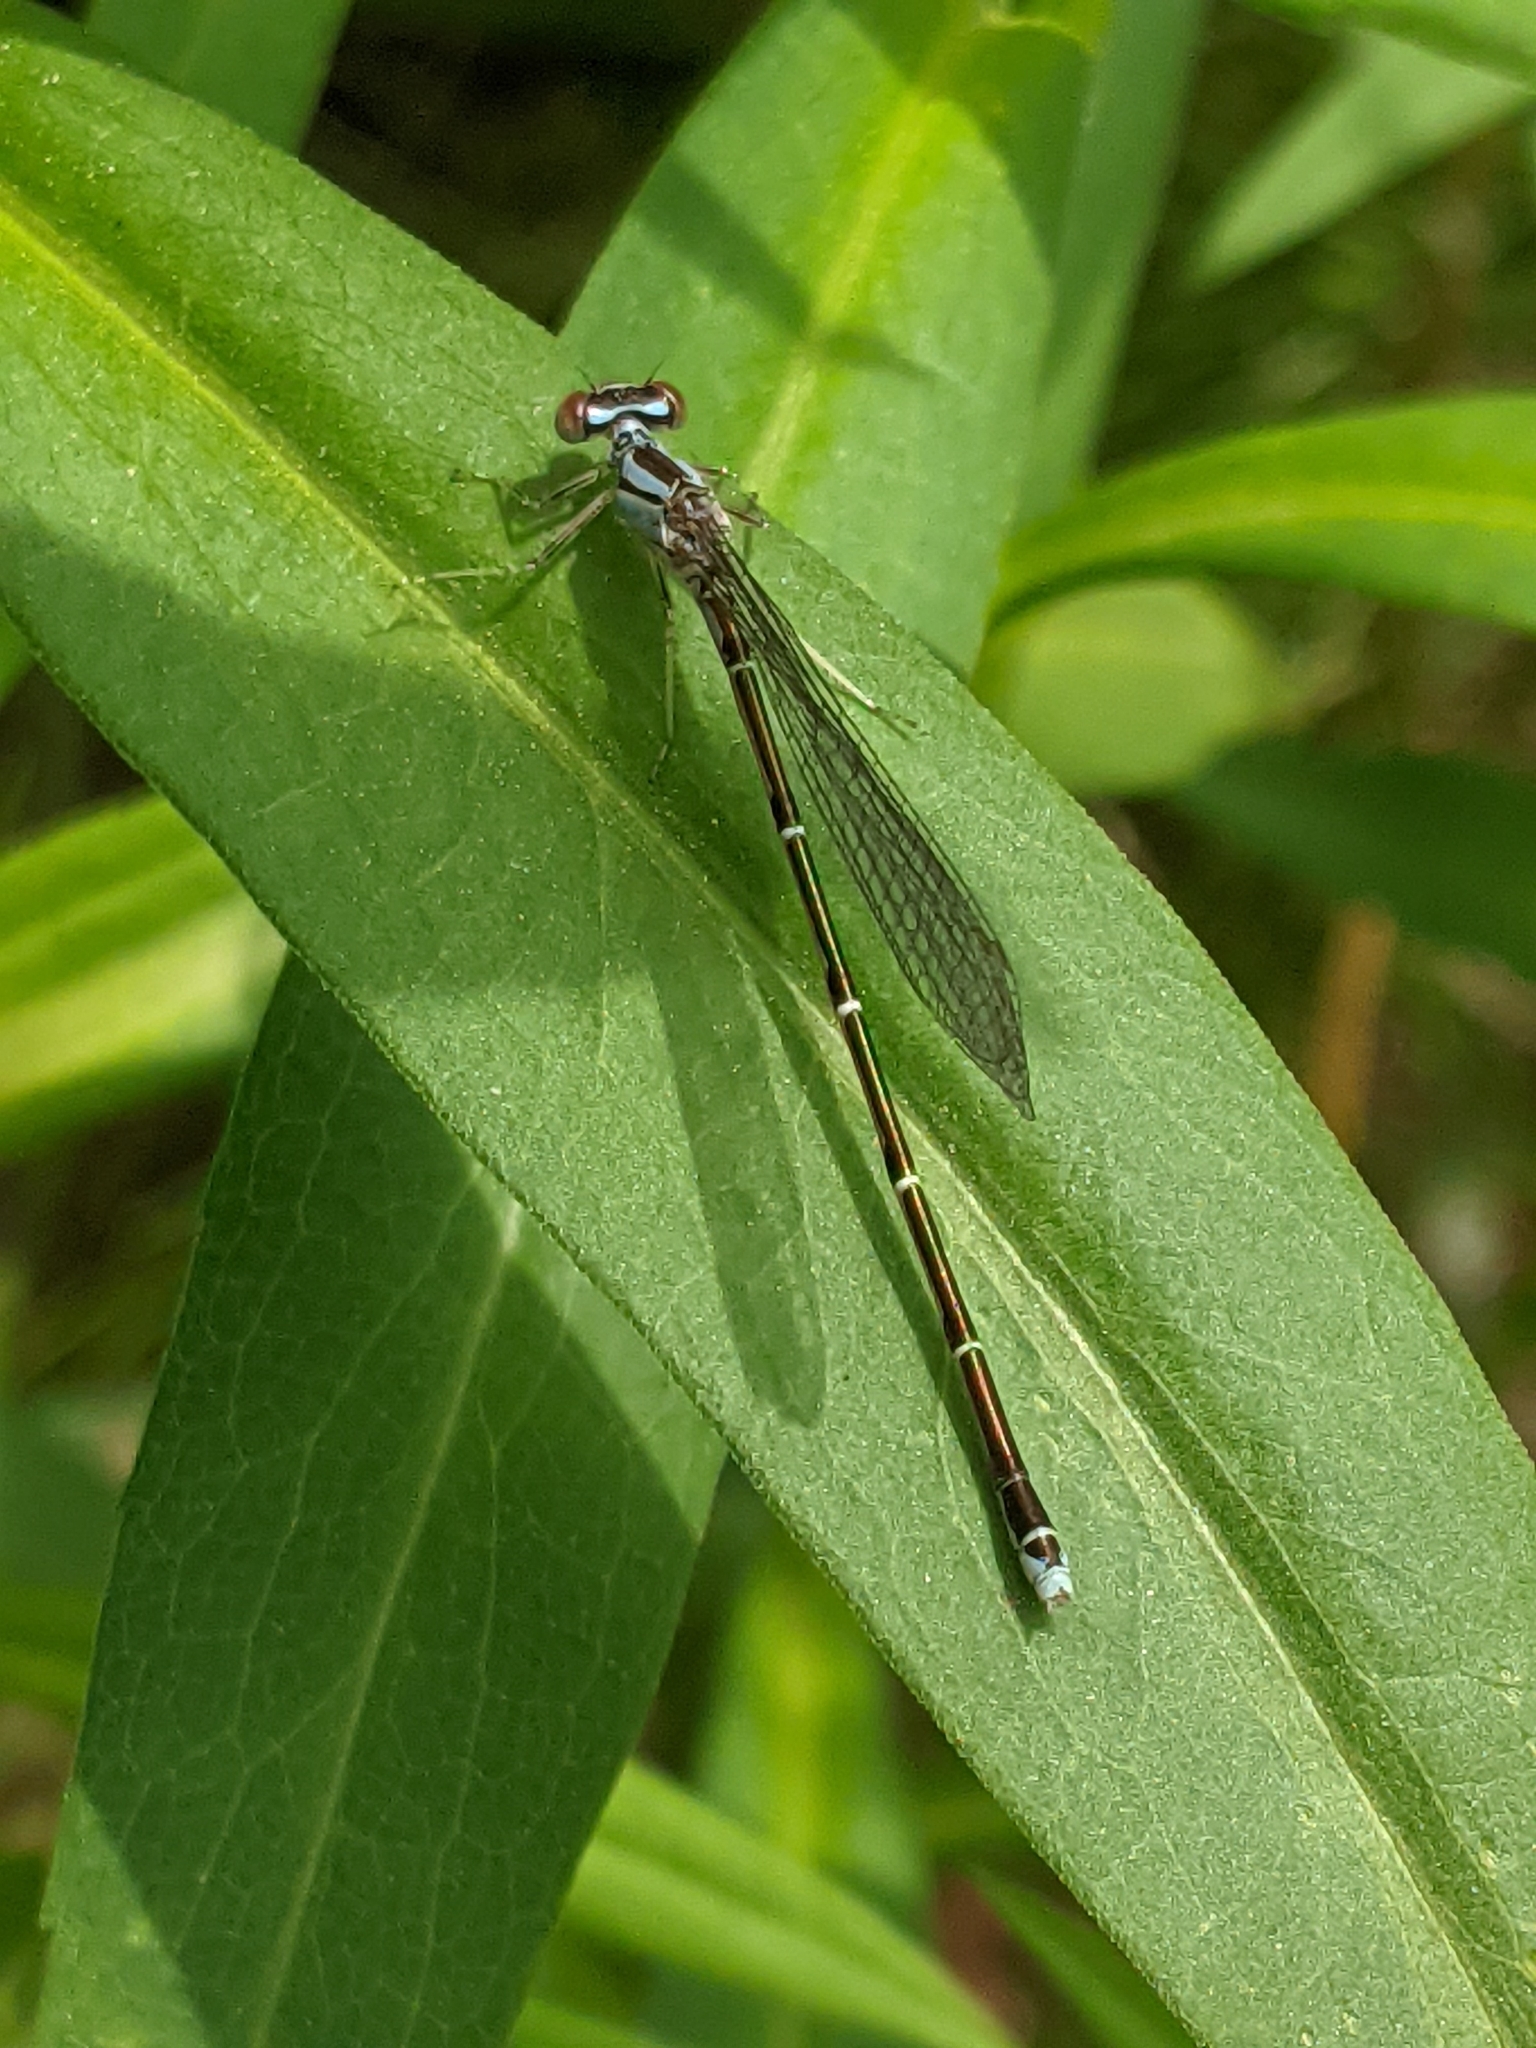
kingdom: Animalia
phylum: Arthropoda
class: Insecta
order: Odonata
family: Coenagrionidae
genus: Enallagma
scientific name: Enallagma signatum
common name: Orange bluet
